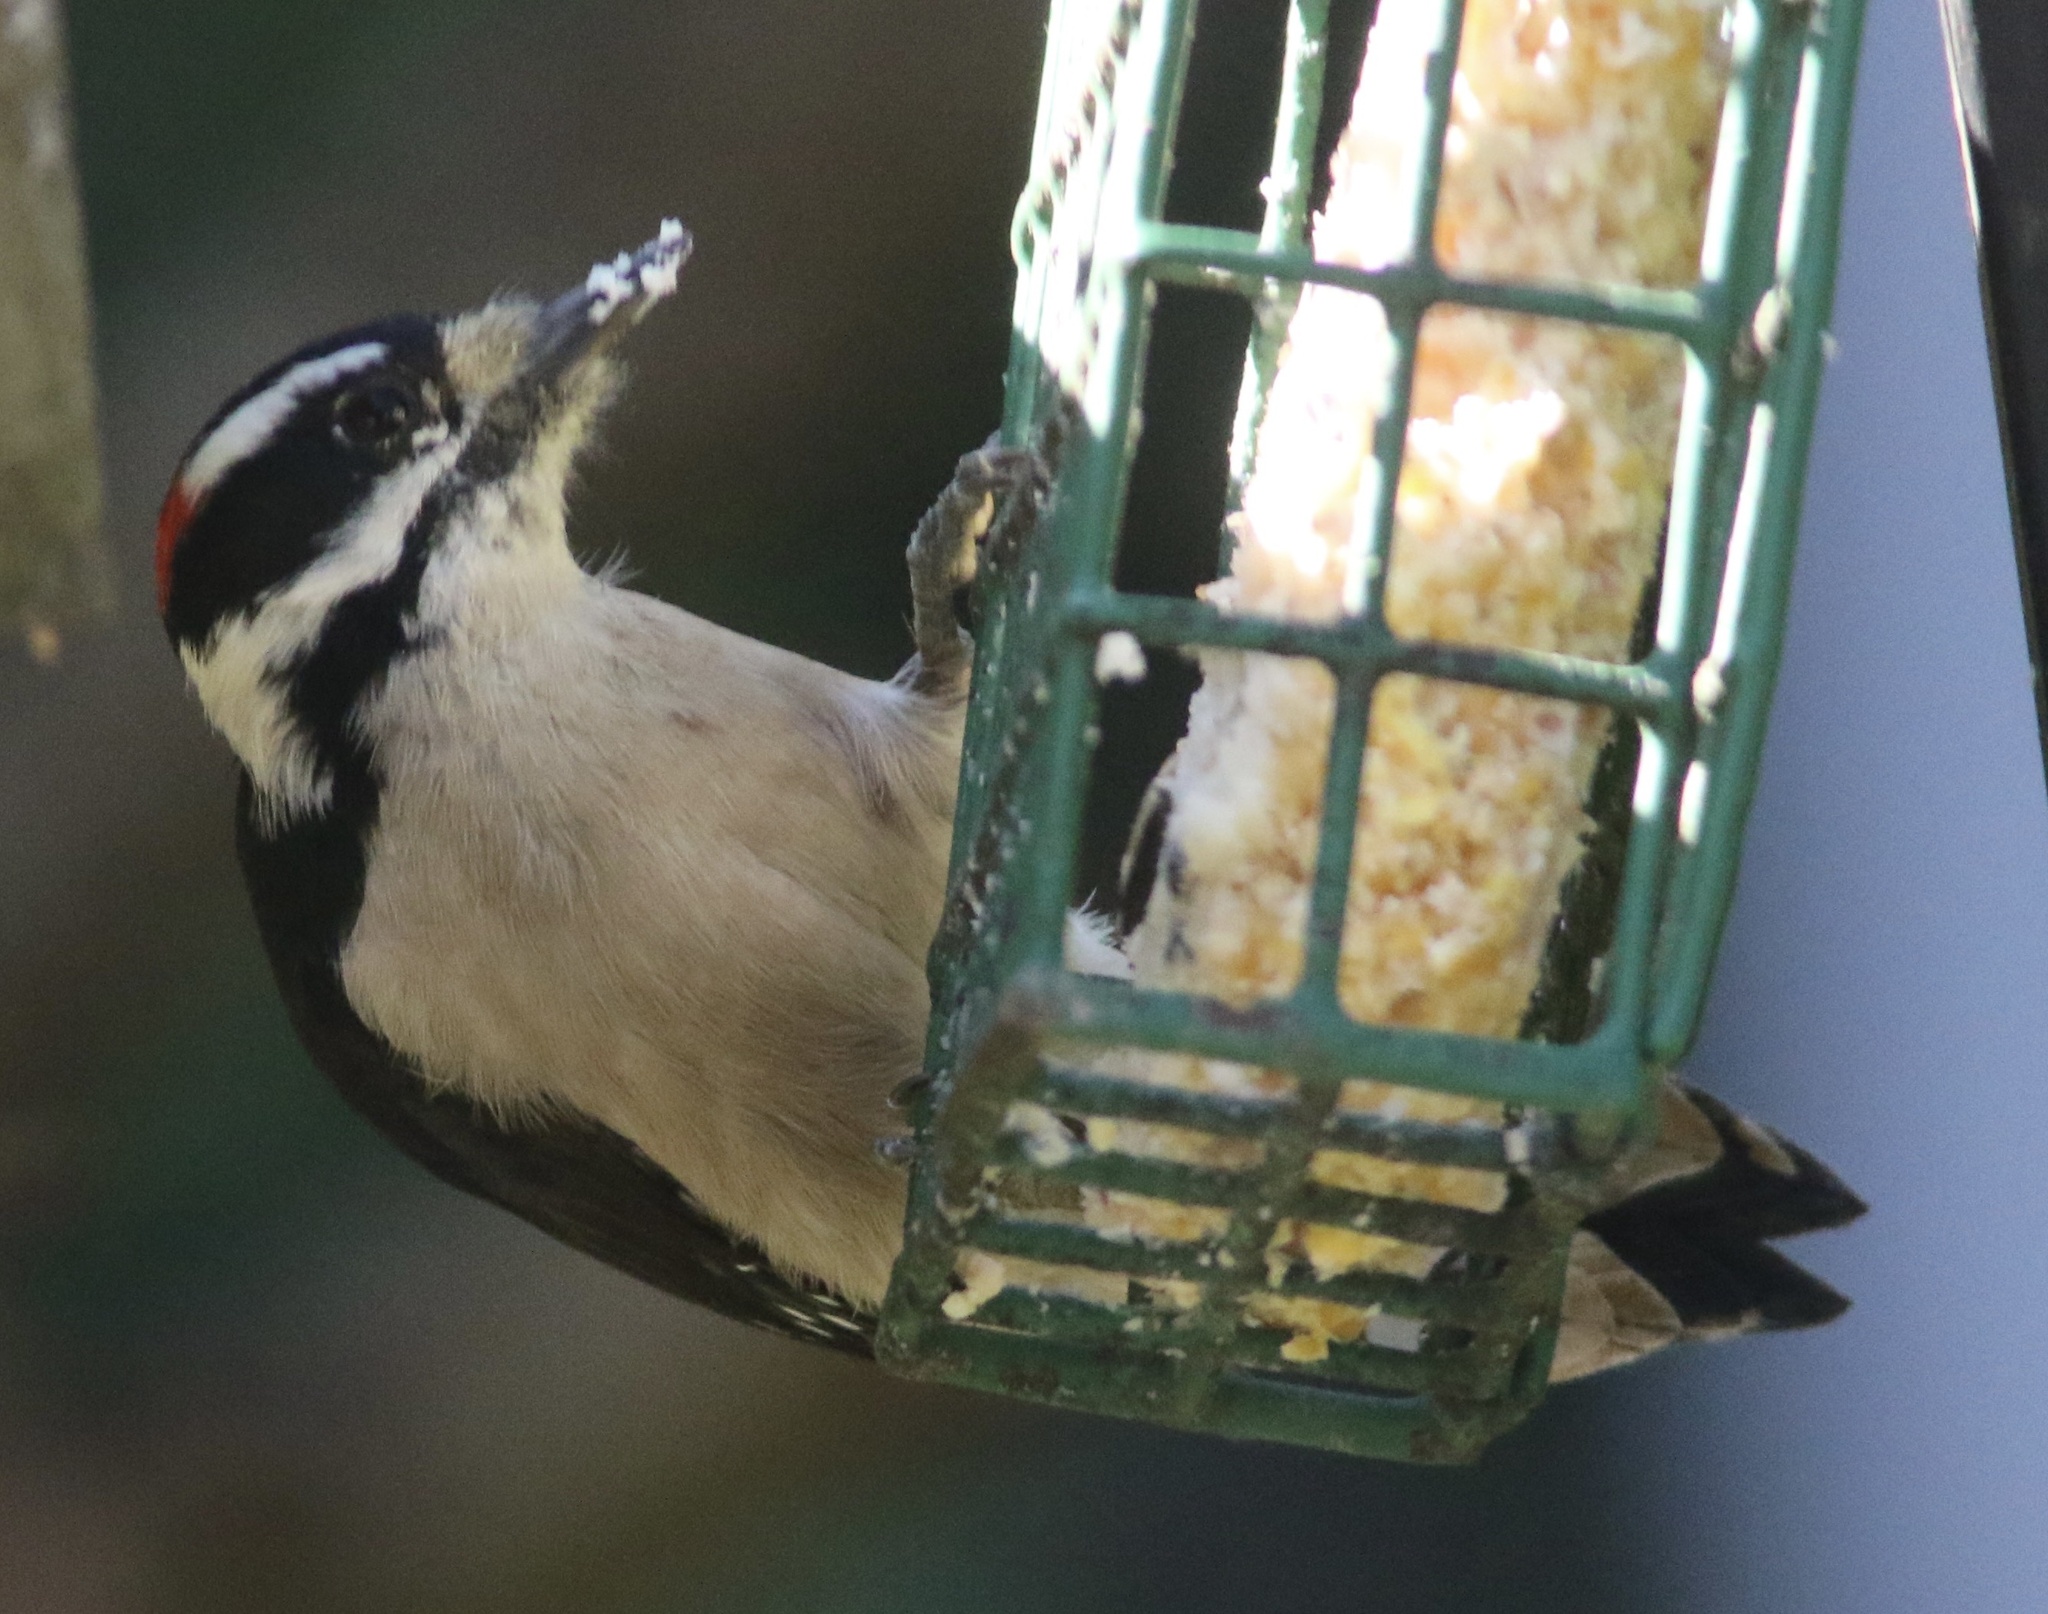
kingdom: Animalia
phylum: Chordata
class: Aves
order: Piciformes
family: Picidae
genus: Dryobates
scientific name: Dryobates pubescens
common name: Downy woodpecker
